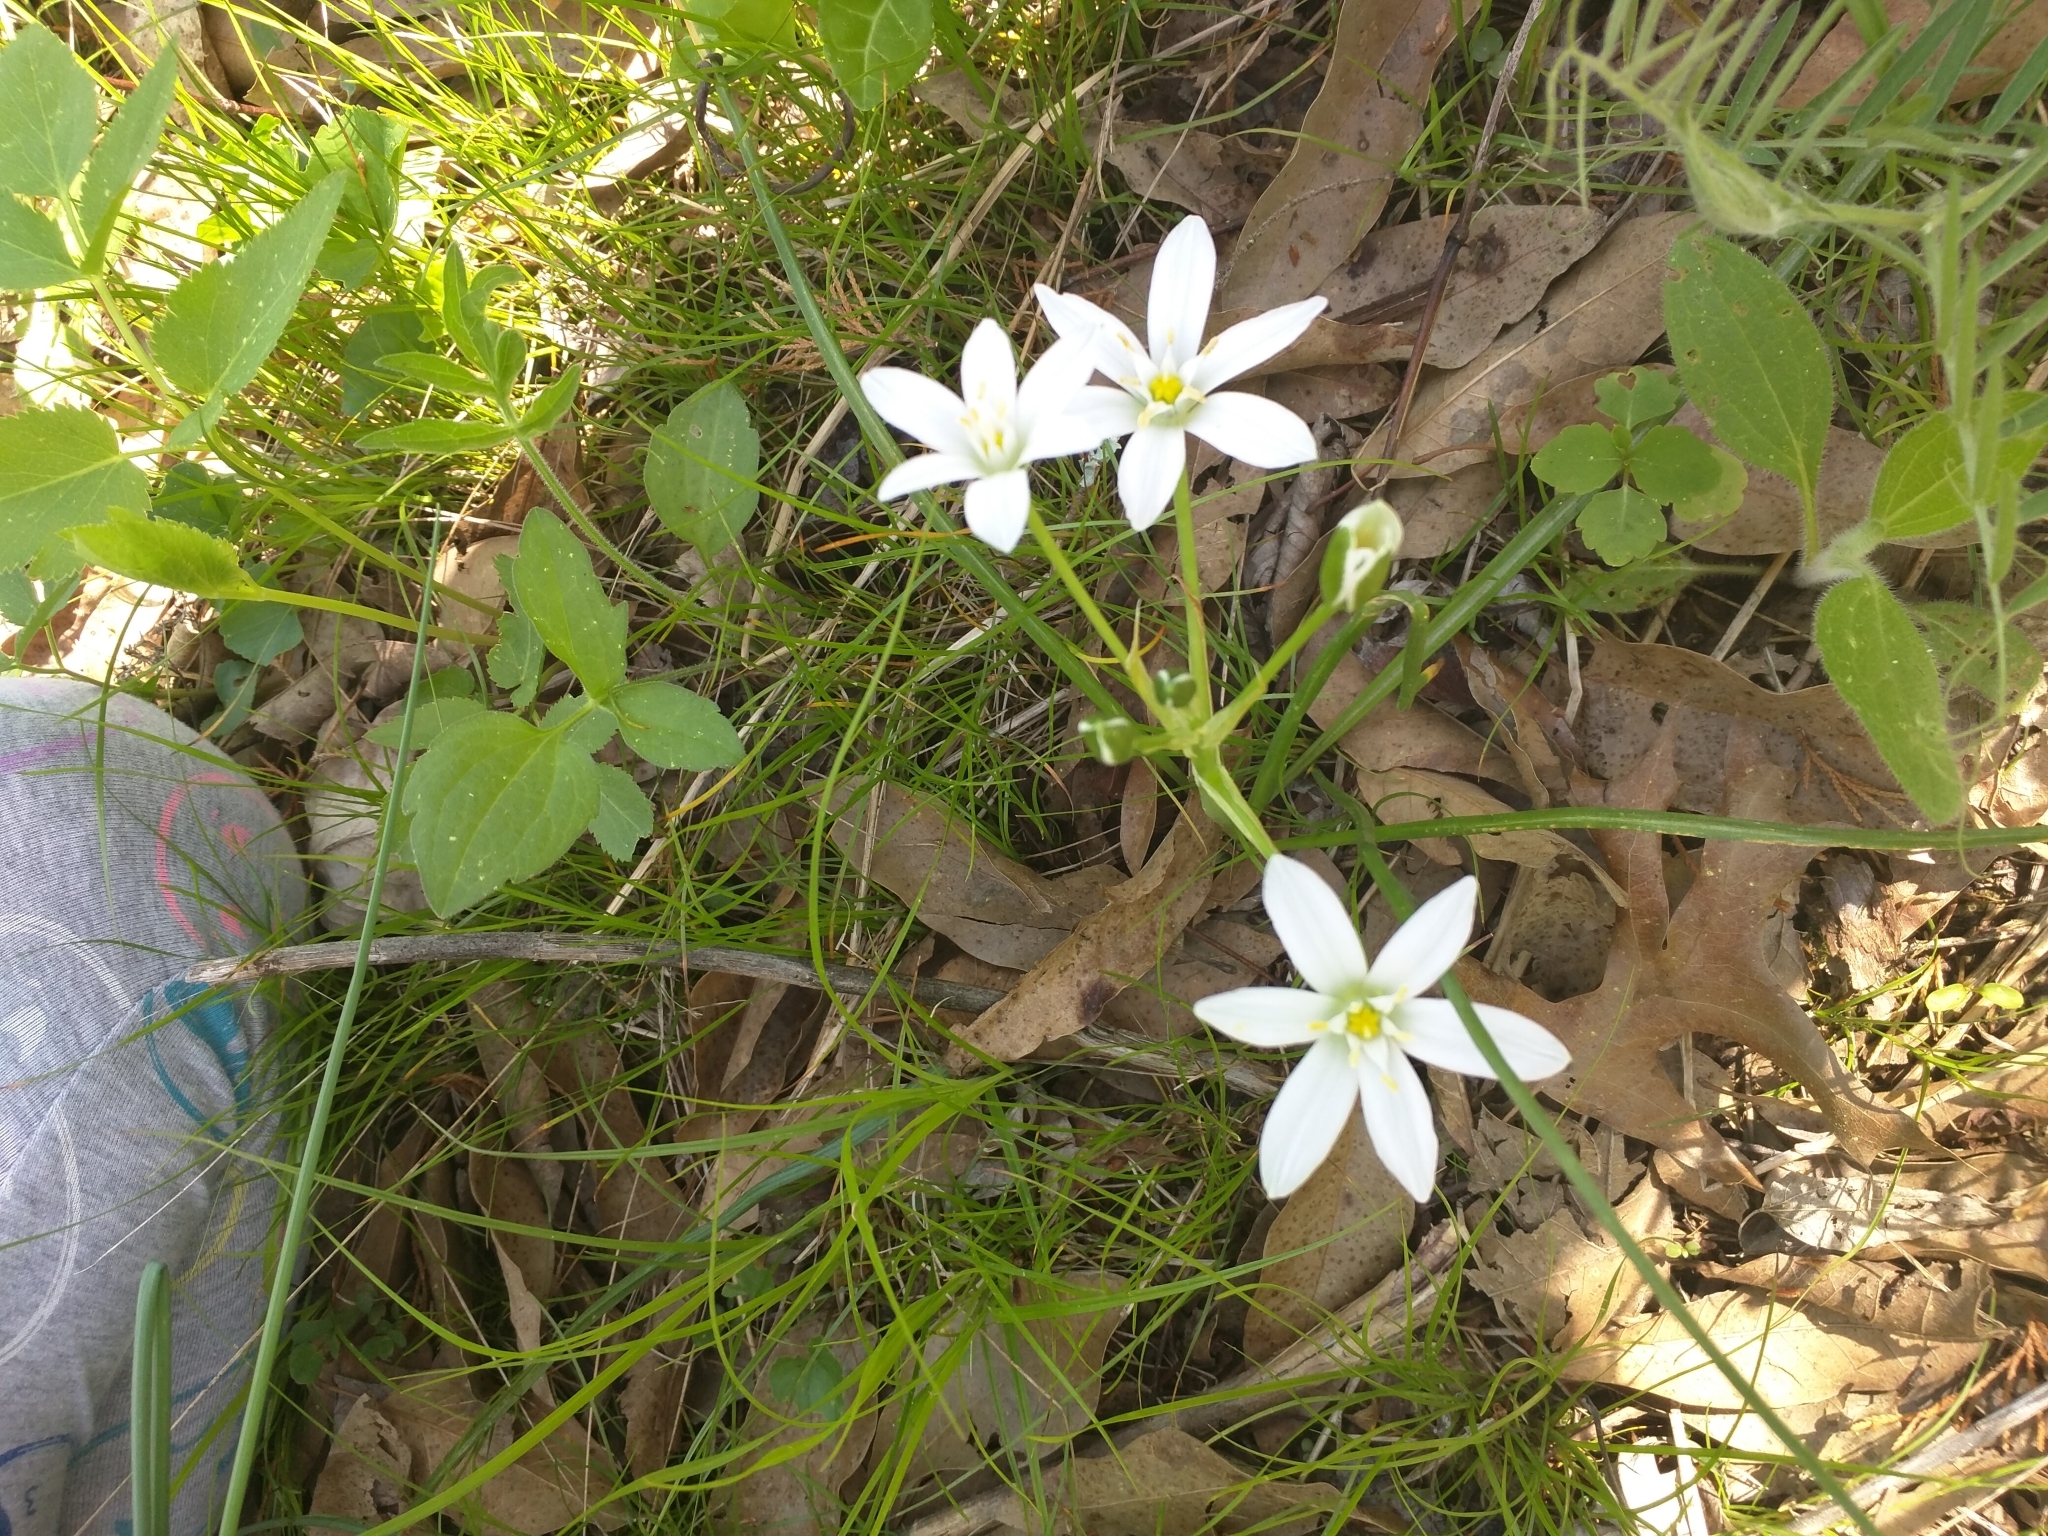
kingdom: Plantae
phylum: Tracheophyta
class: Liliopsida
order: Asparagales
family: Asparagaceae
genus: Ornithogalum
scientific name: Ornithogalum umbellatum
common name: Garden star-of-bethlehem
